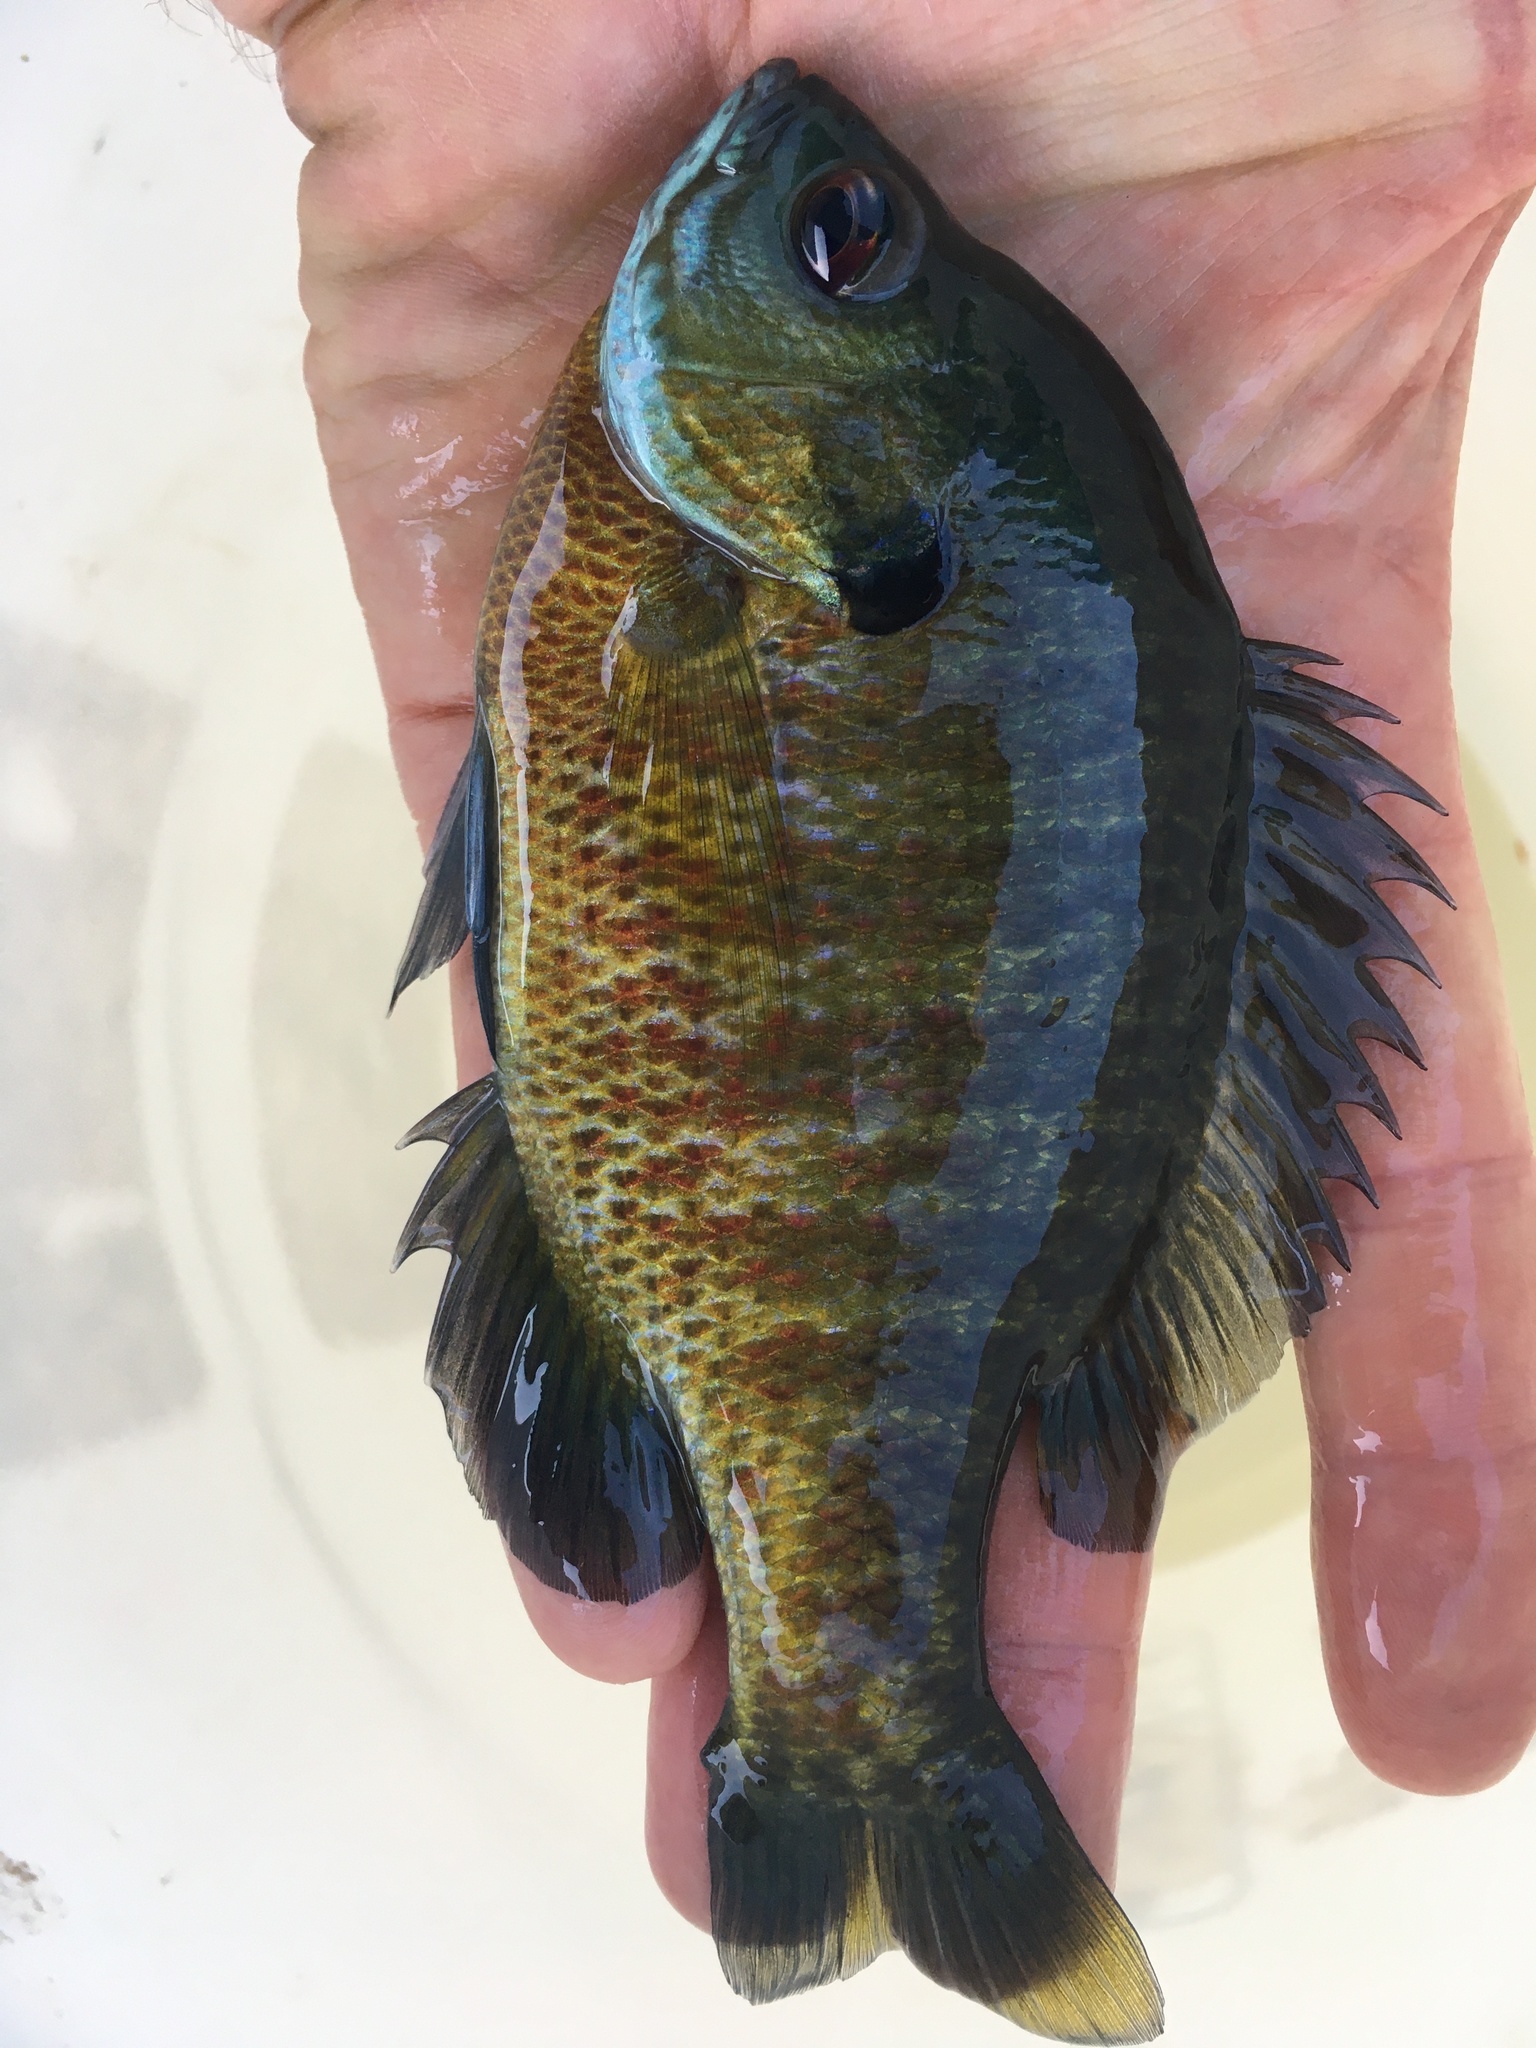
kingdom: Animalia
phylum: Chordata
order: Perciformes
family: Centrarchidae
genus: Lepomis
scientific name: Lepomis macrochirus
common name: Bluegill
